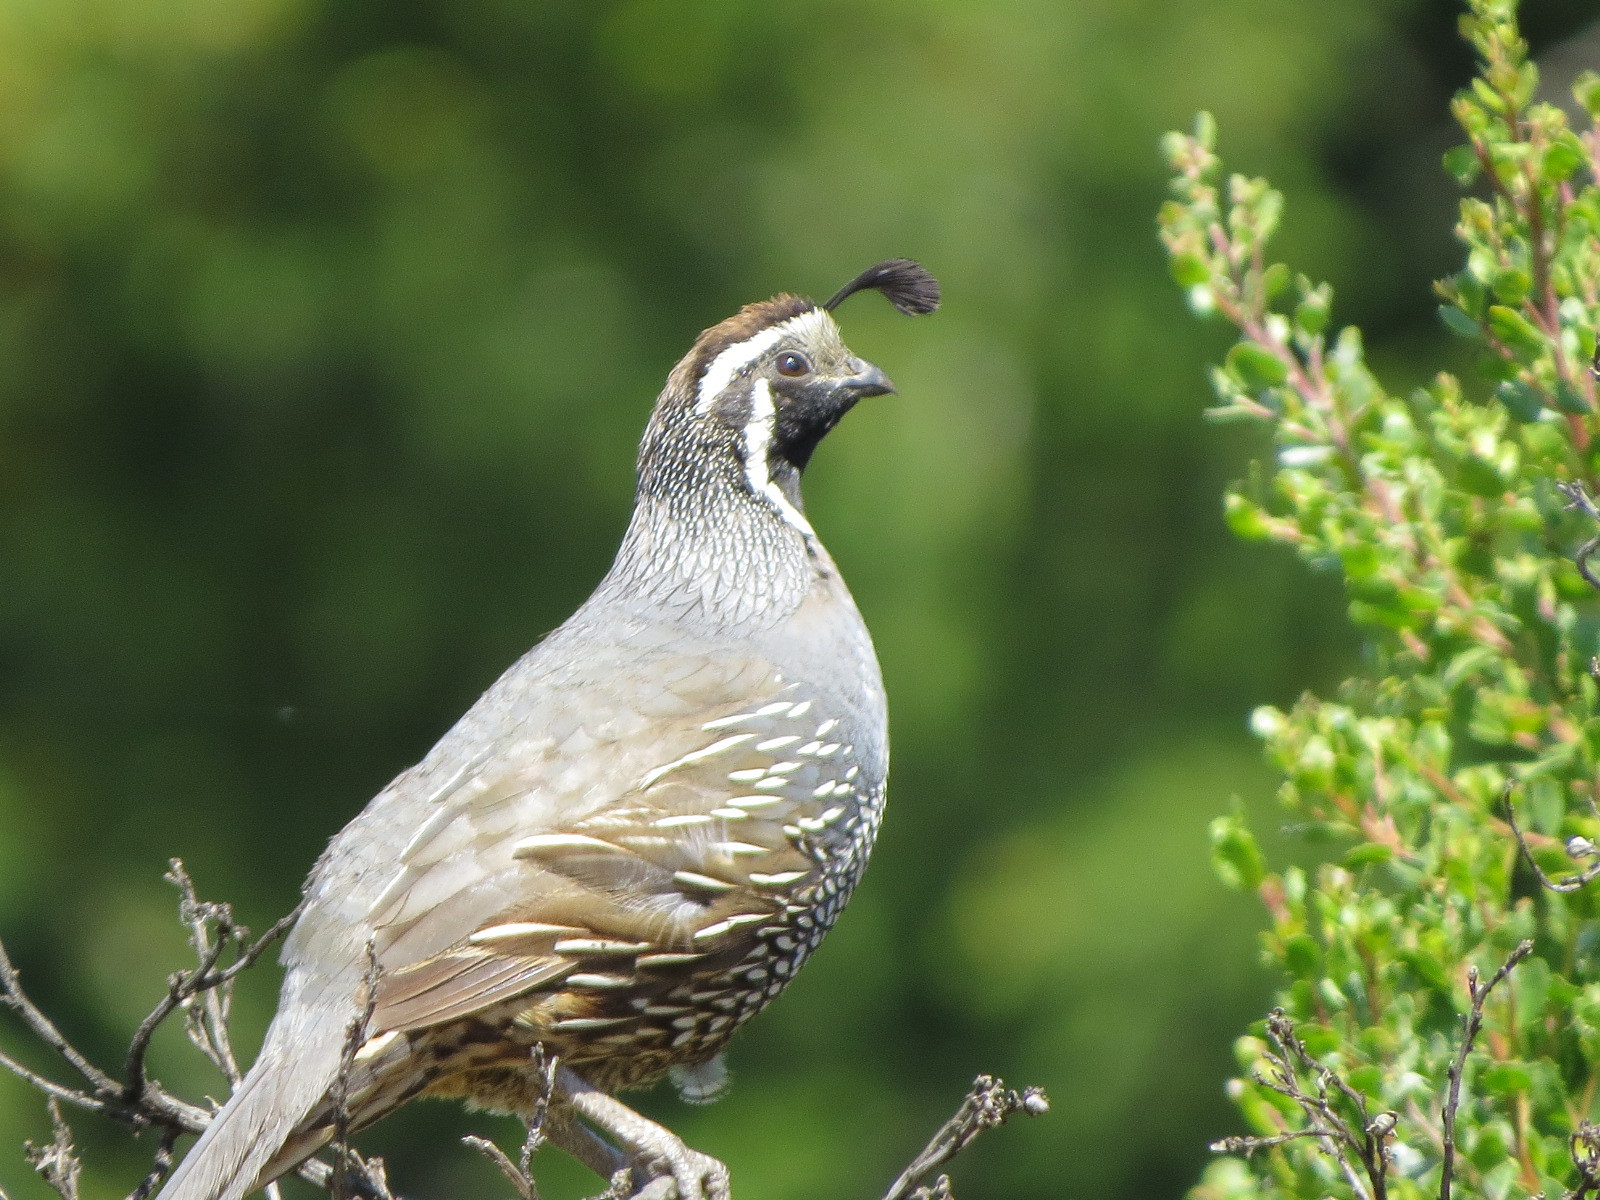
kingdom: Animalia
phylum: Chordata
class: Aves
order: Galliformes
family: Odontophoridae
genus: Callipepla
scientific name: Callipepla californica
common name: California quail
